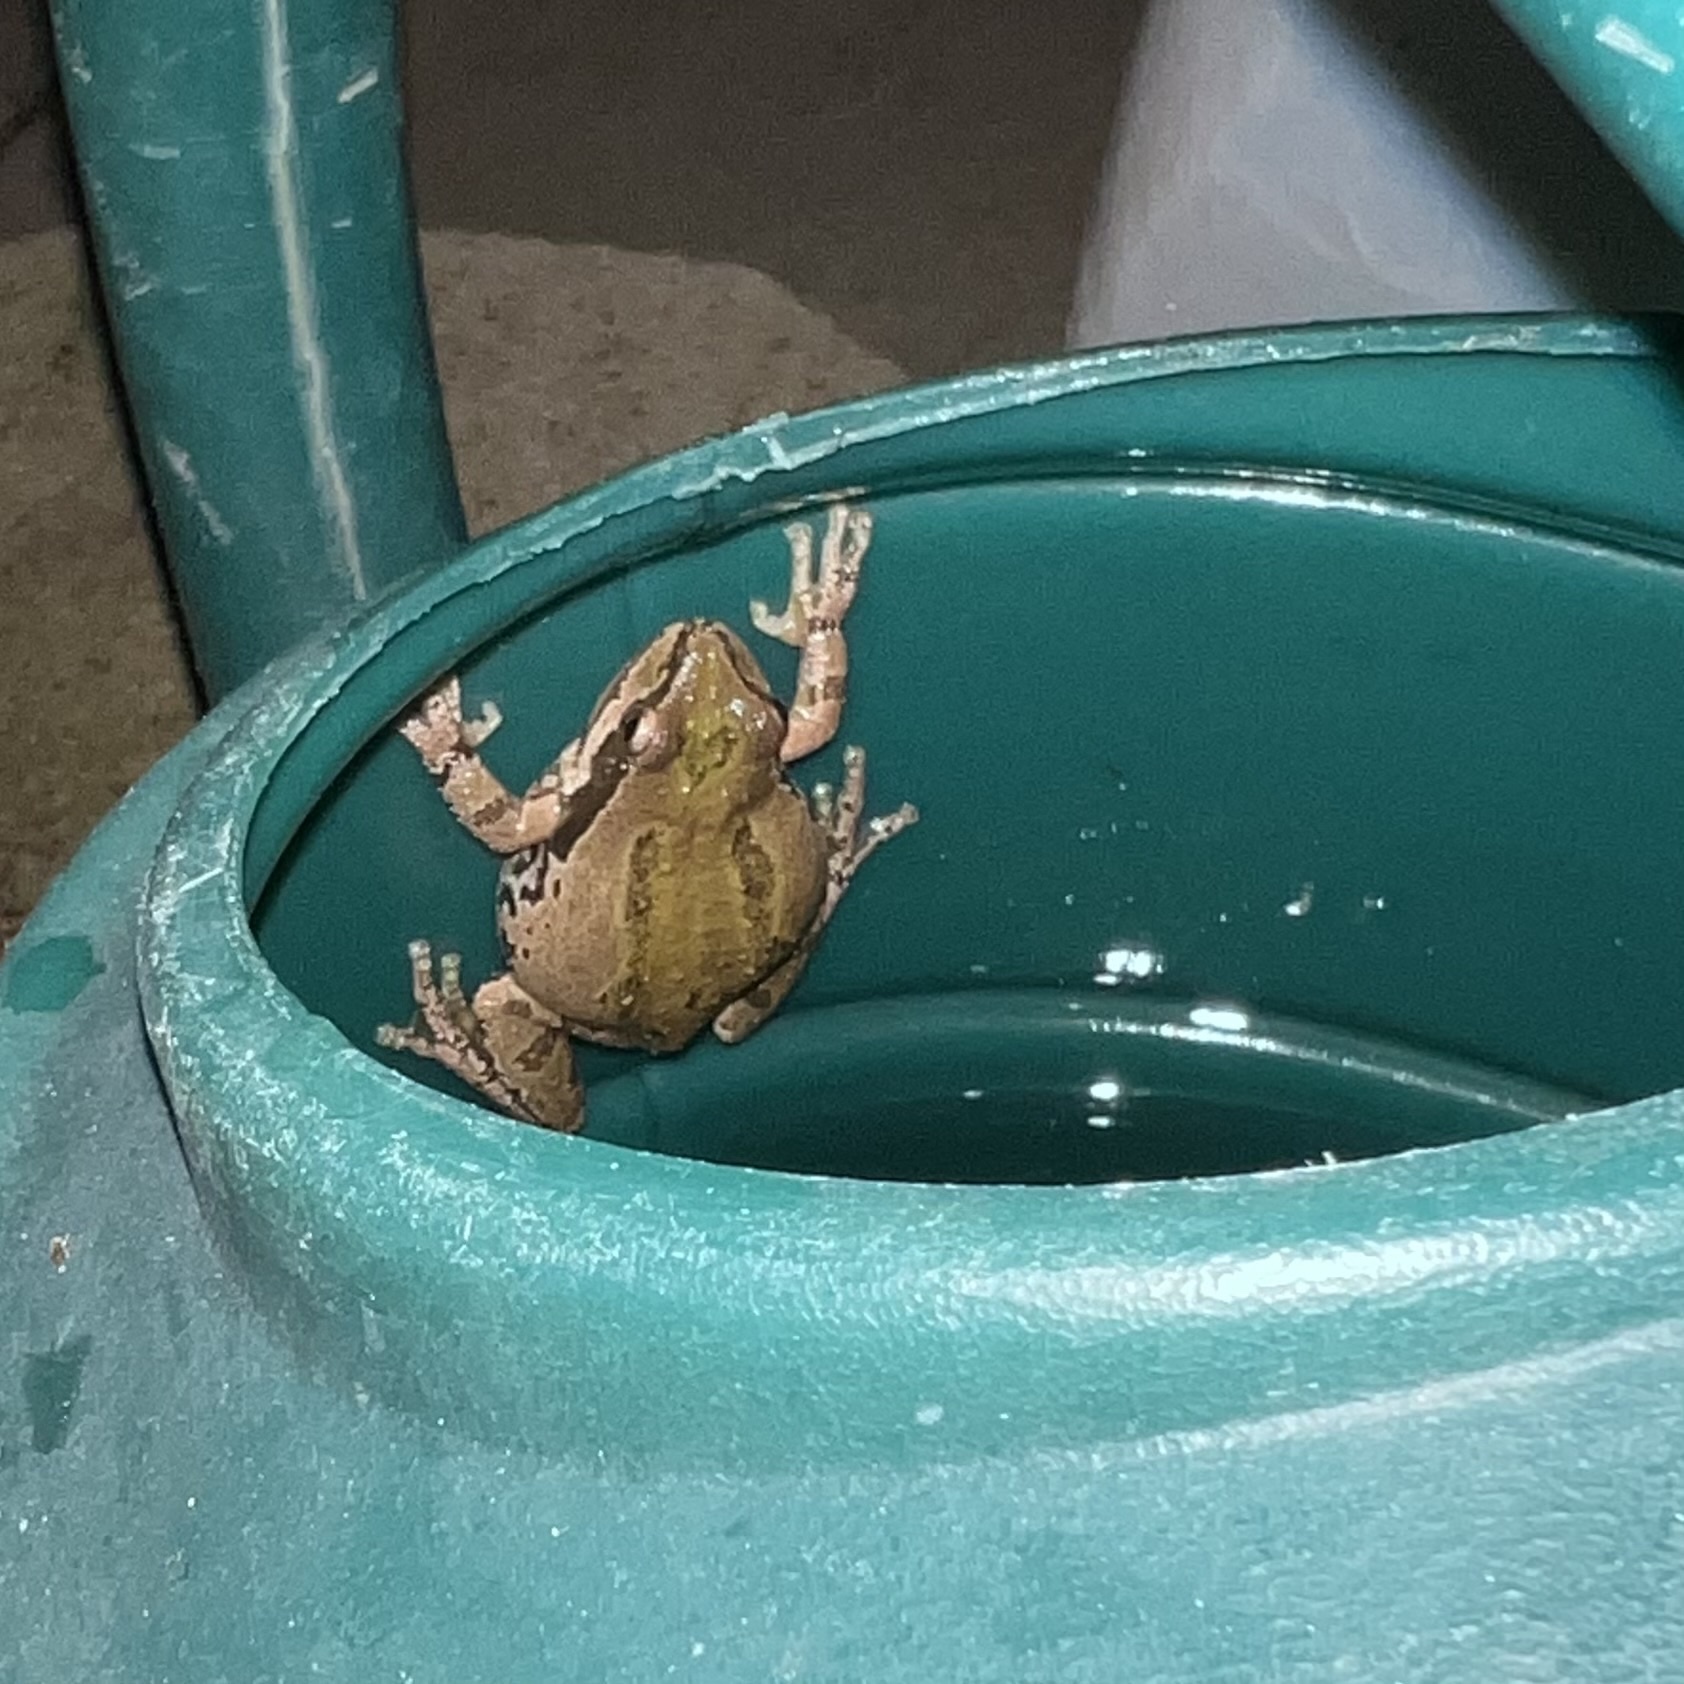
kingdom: Animalia
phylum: Chordata
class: Amphibia
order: Anura
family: Hylidae
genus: Pseudacris
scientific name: Pseudacris regilla
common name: Pacific chorus frog
